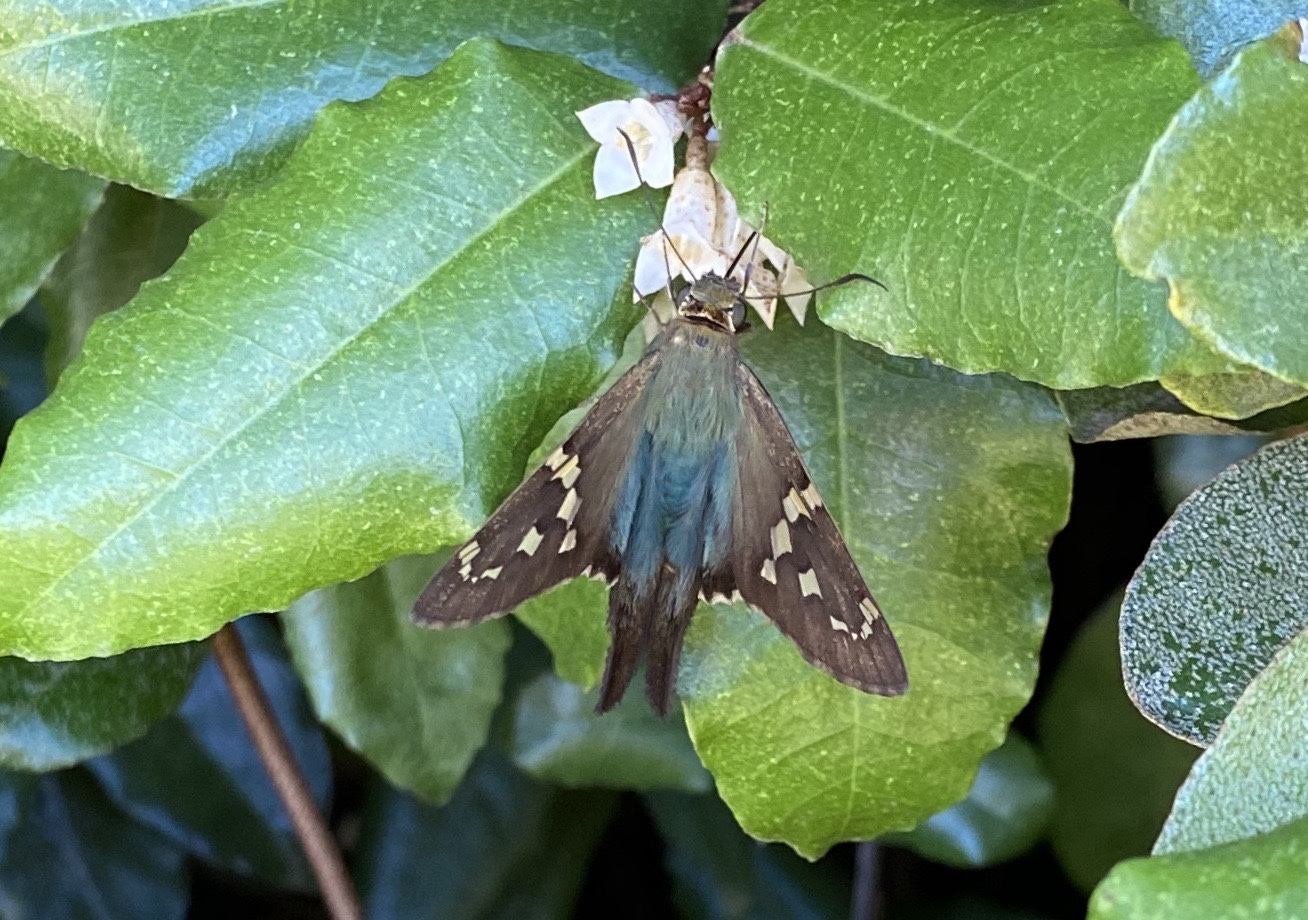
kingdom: Animalia
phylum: Arthropoda
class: Insecta
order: Lepidoptera
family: Hesperiidae
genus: Urbanus
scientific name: Urbanus proteus
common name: Long-tailed skipper
